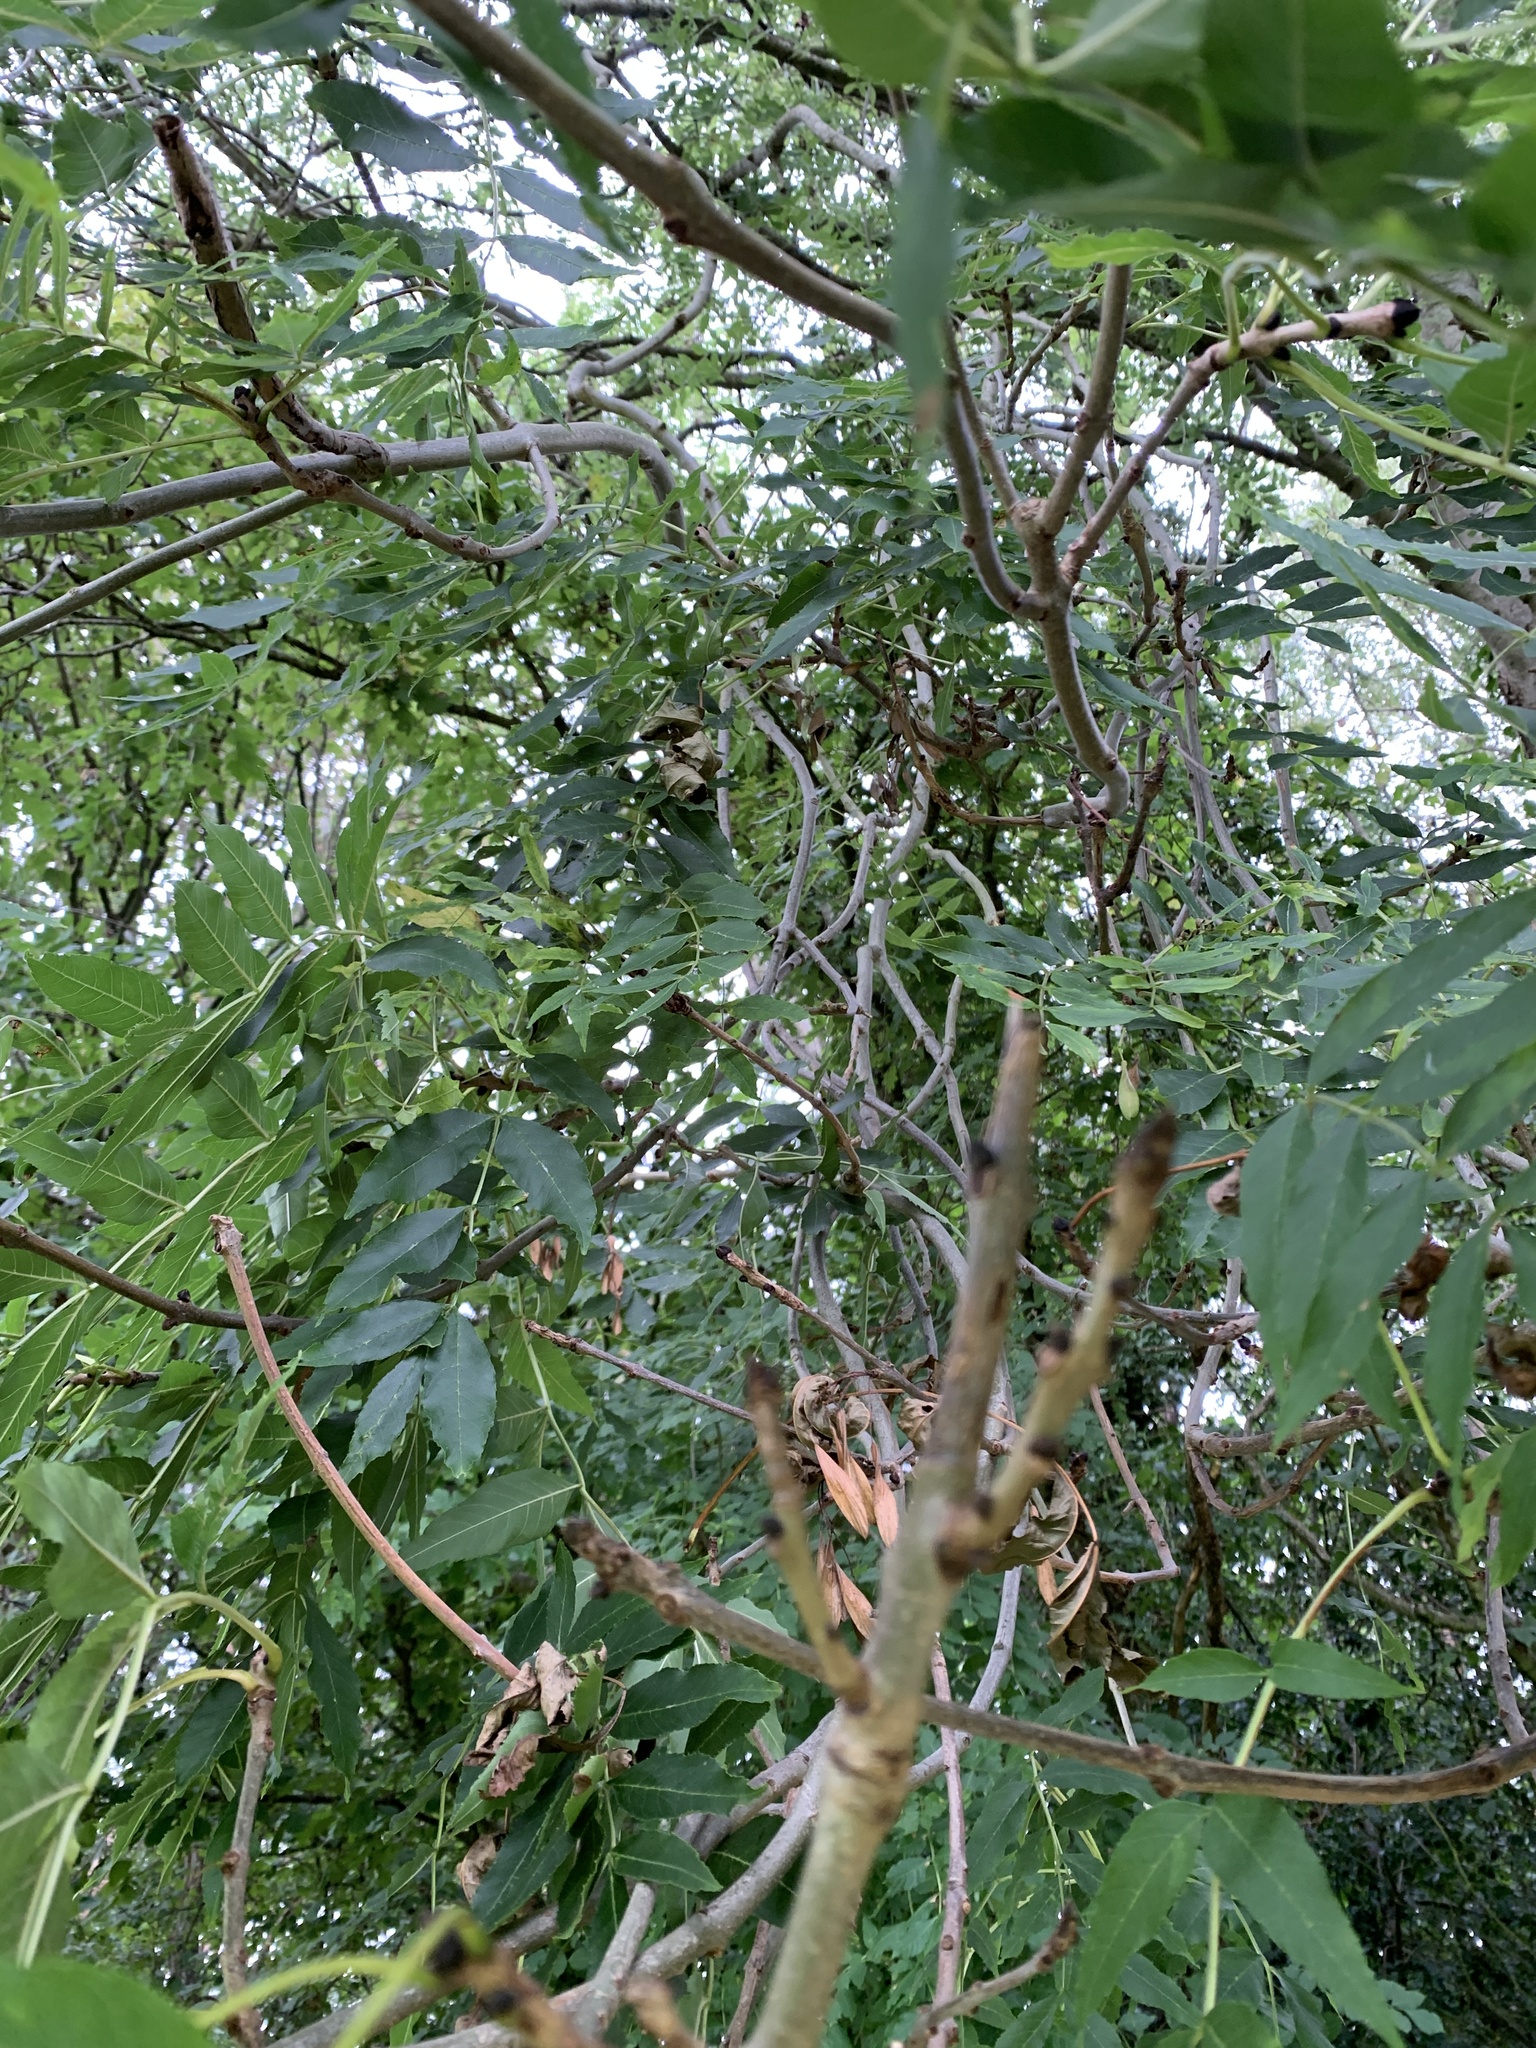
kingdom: Plantae
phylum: Tracheophyta
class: Magnoliopsida
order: Lamiales
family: Oleaceae
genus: Fraxinus
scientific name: Fraxinus excelsior
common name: European ash
